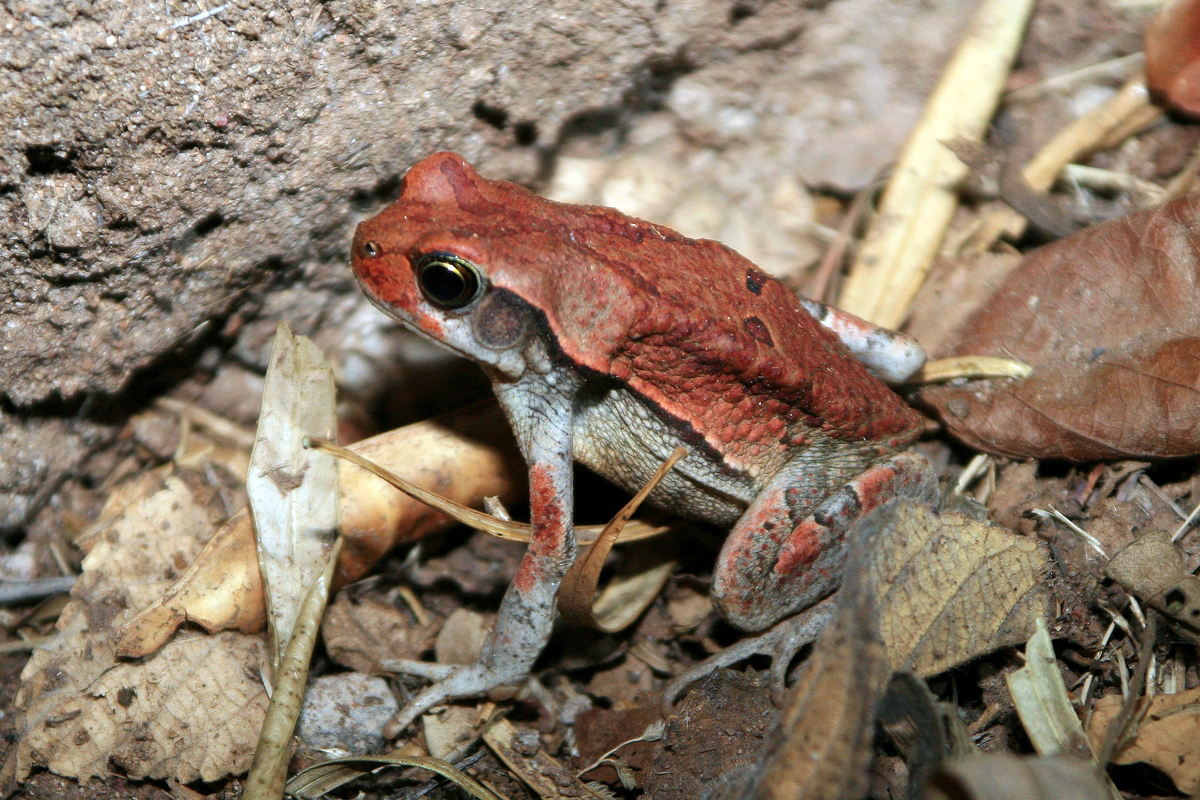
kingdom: Animalia
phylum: Chordata
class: Amphibia
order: Anura
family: Bufonidae
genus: Schismaderma
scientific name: Schismaderma carens
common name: African split-skin toad
